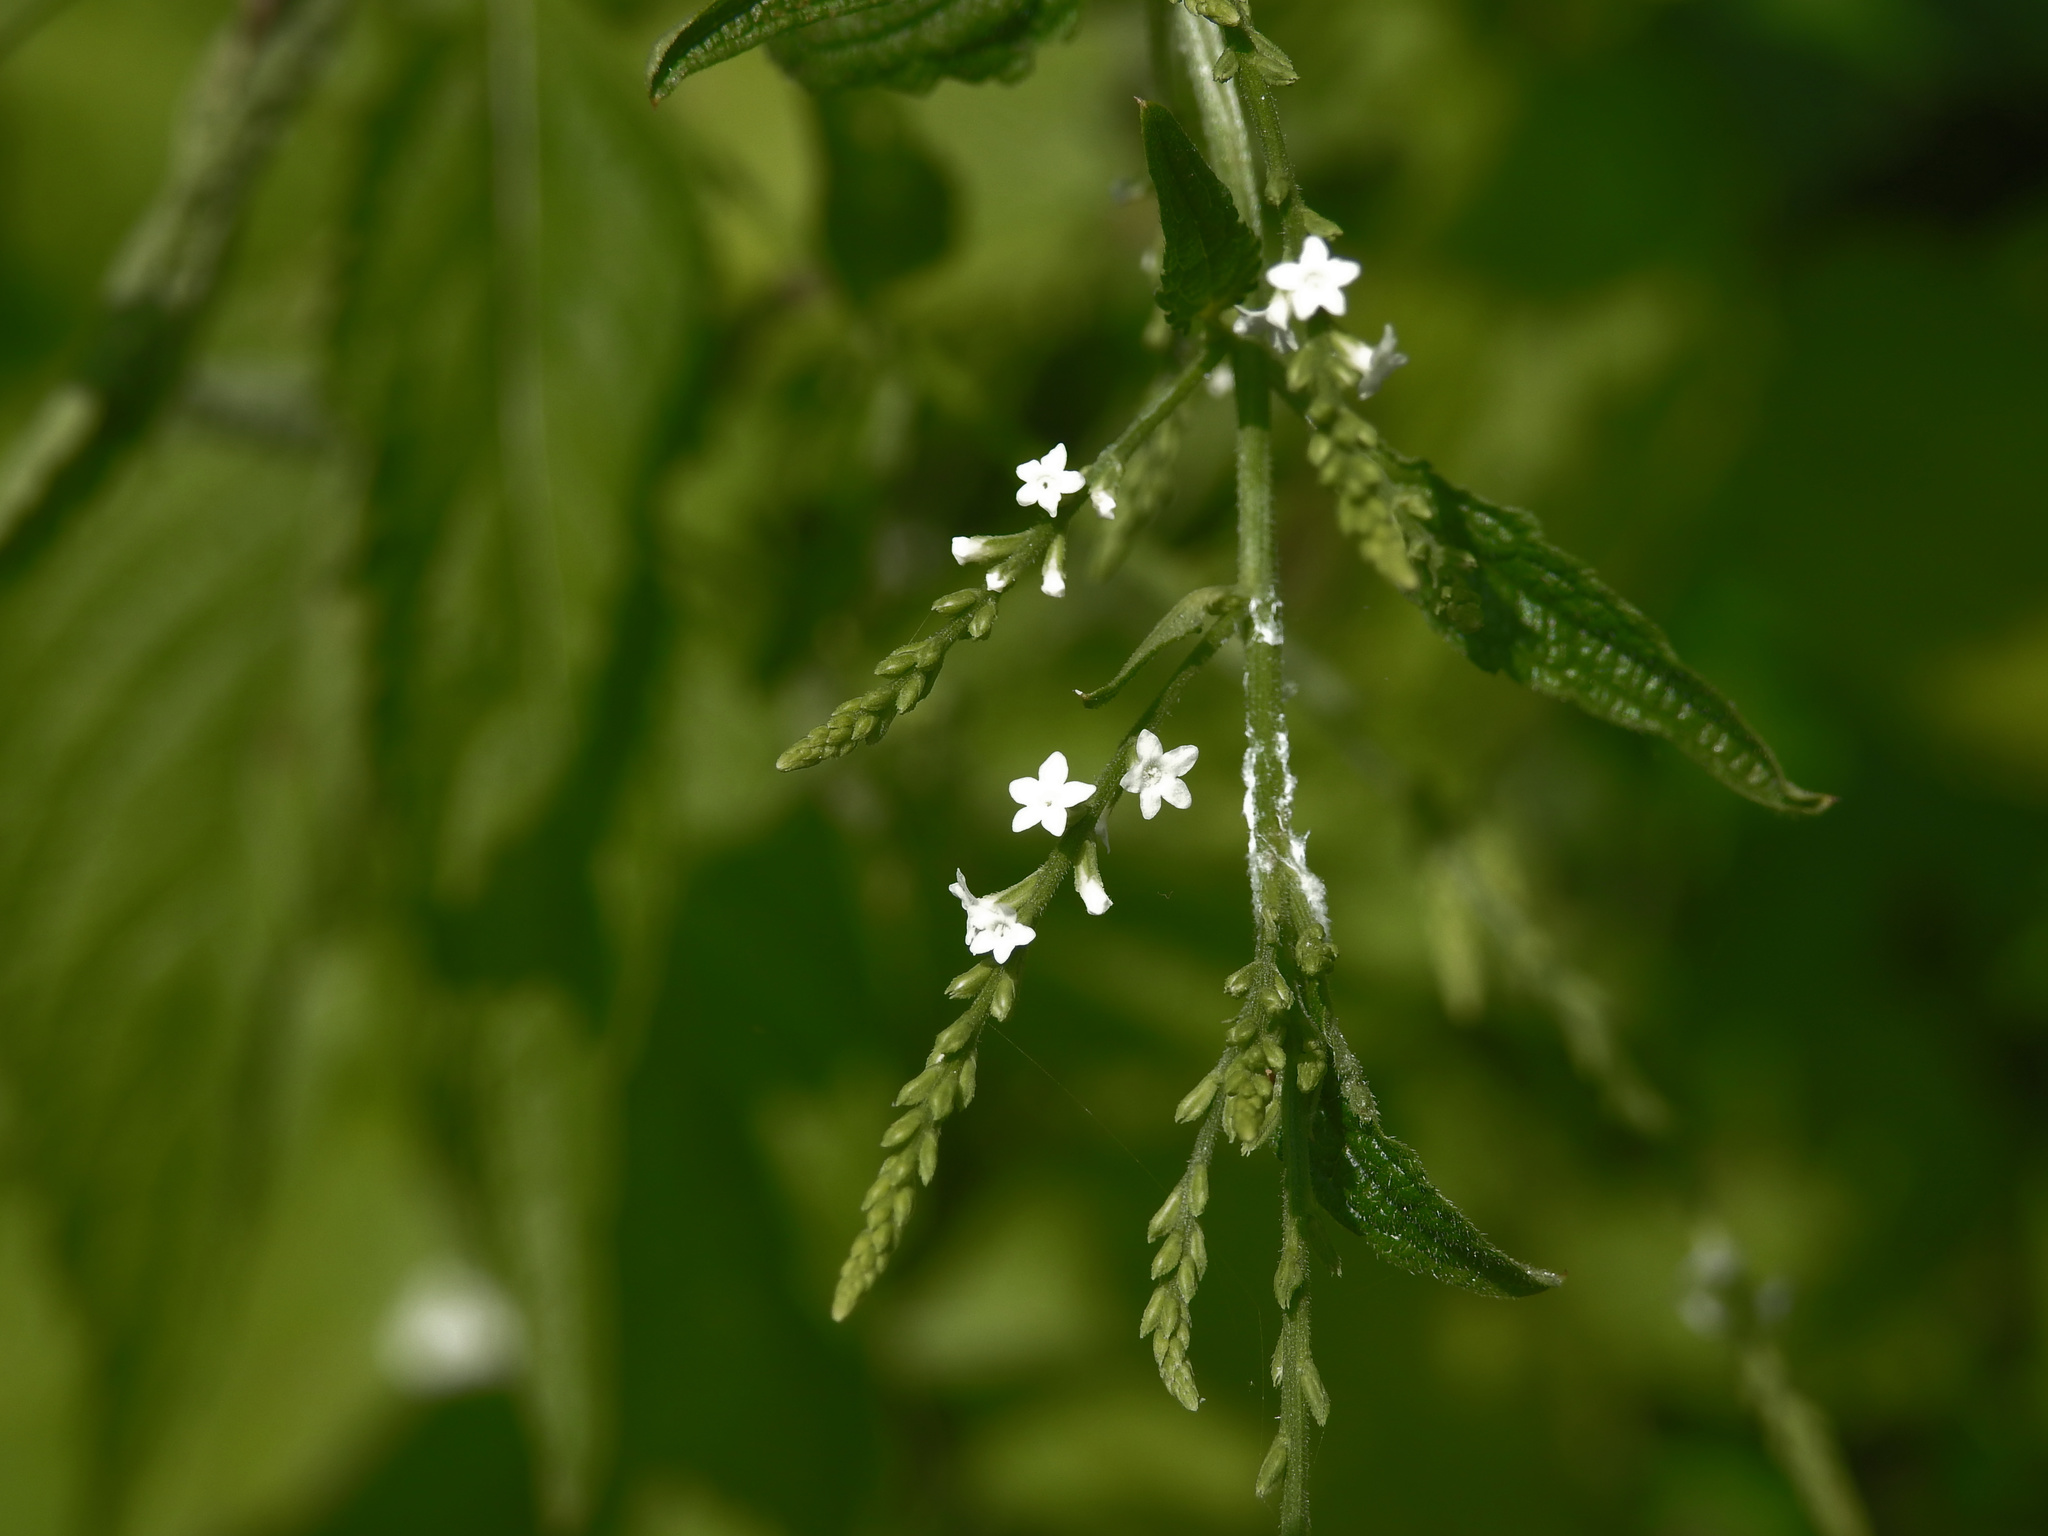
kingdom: Plantae
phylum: Tracheophyta
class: Magnoliopsida
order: Lamiales
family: Verbenaceae
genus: Verbena
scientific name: Verbena urticifolia
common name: Nettle-leaved vervain
